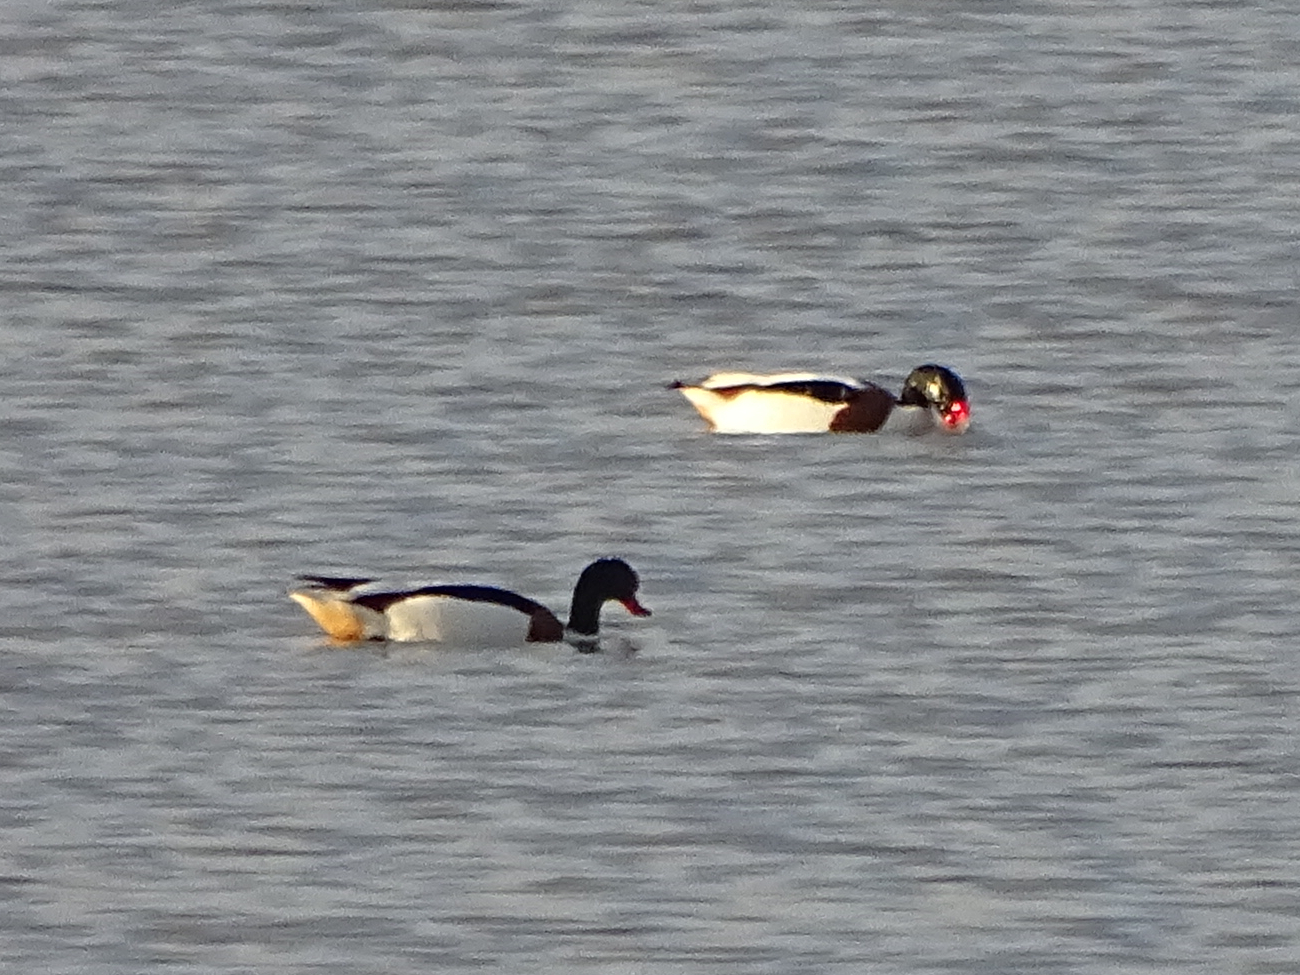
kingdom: Animalia
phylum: Chordata
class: Aves
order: Anseriformes
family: Anatidae
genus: Tadorna
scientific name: Tadorna tadorna
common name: Common shelduck
